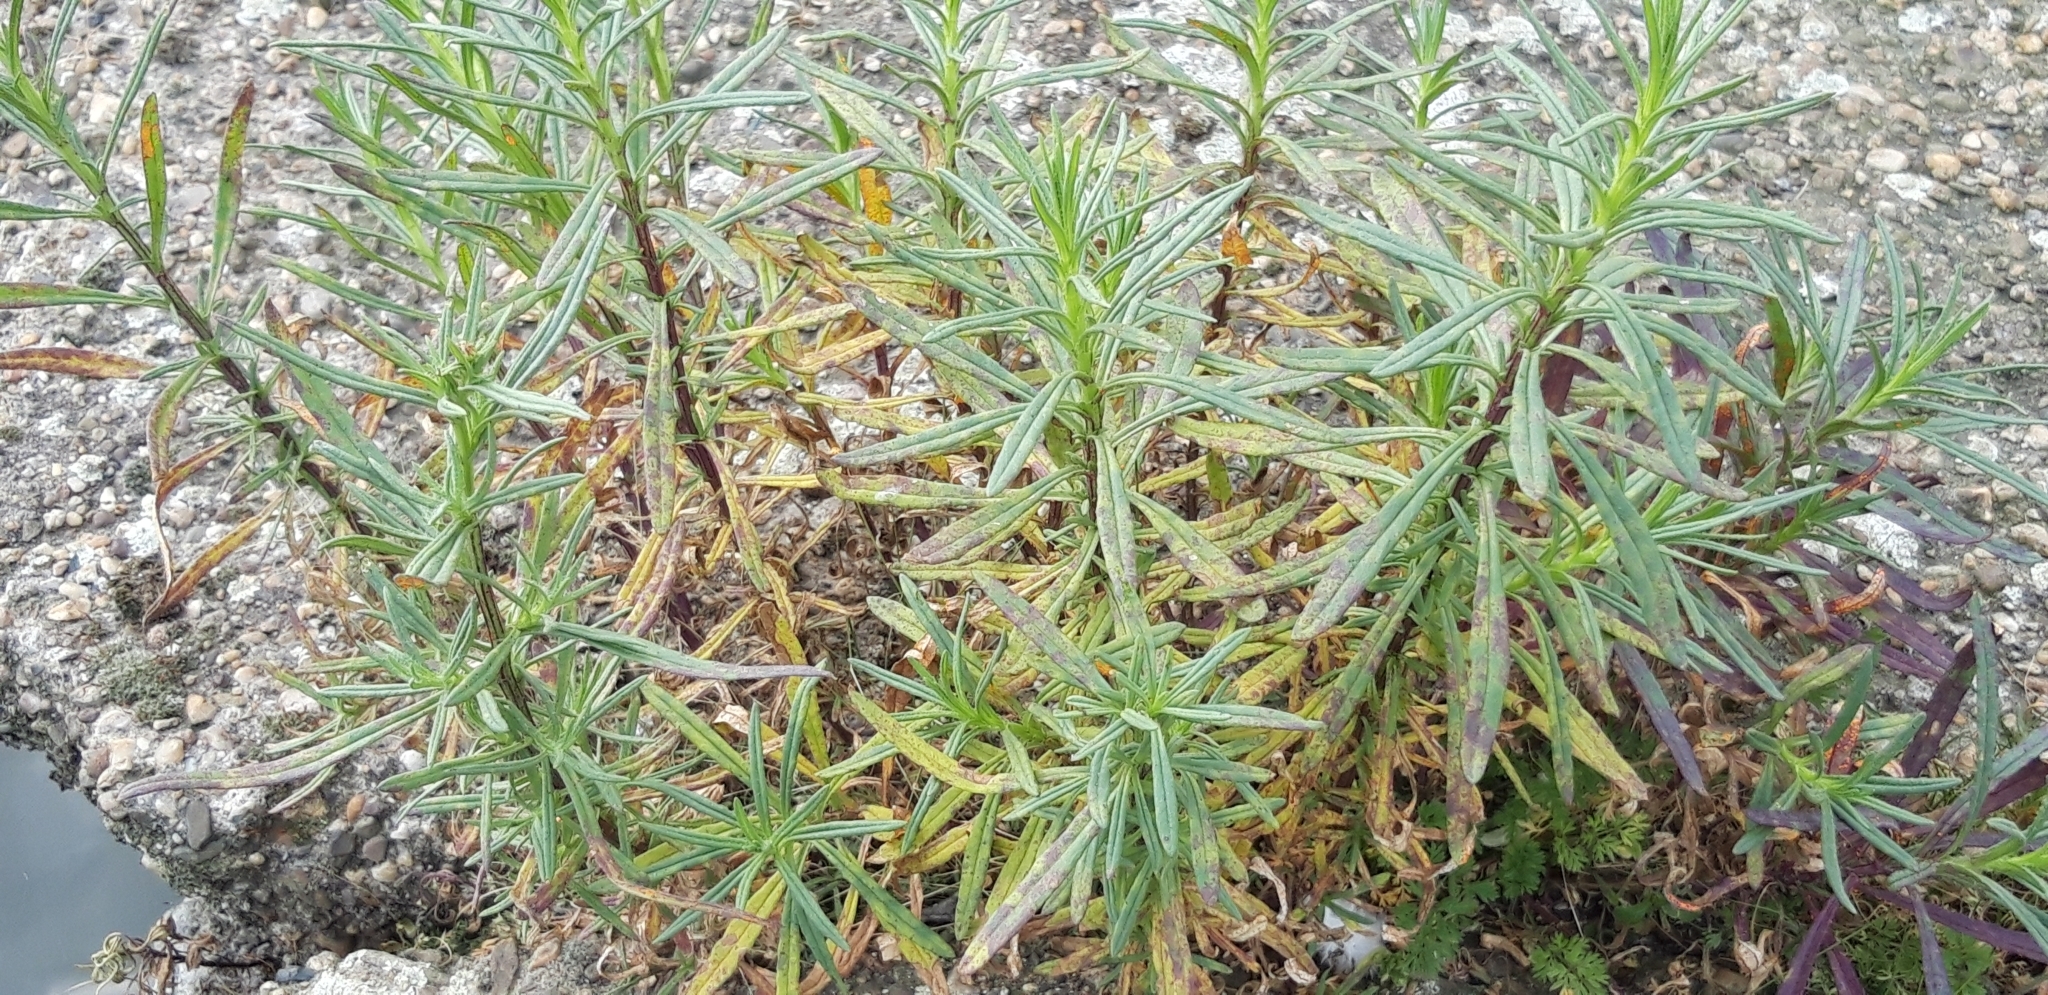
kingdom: Plantae
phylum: Tracheophyta
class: Magnoliopsida
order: Asterales
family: Asteraceae
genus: Senecio
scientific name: Senecio inaequidens
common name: Narrow-leaved ragwort
